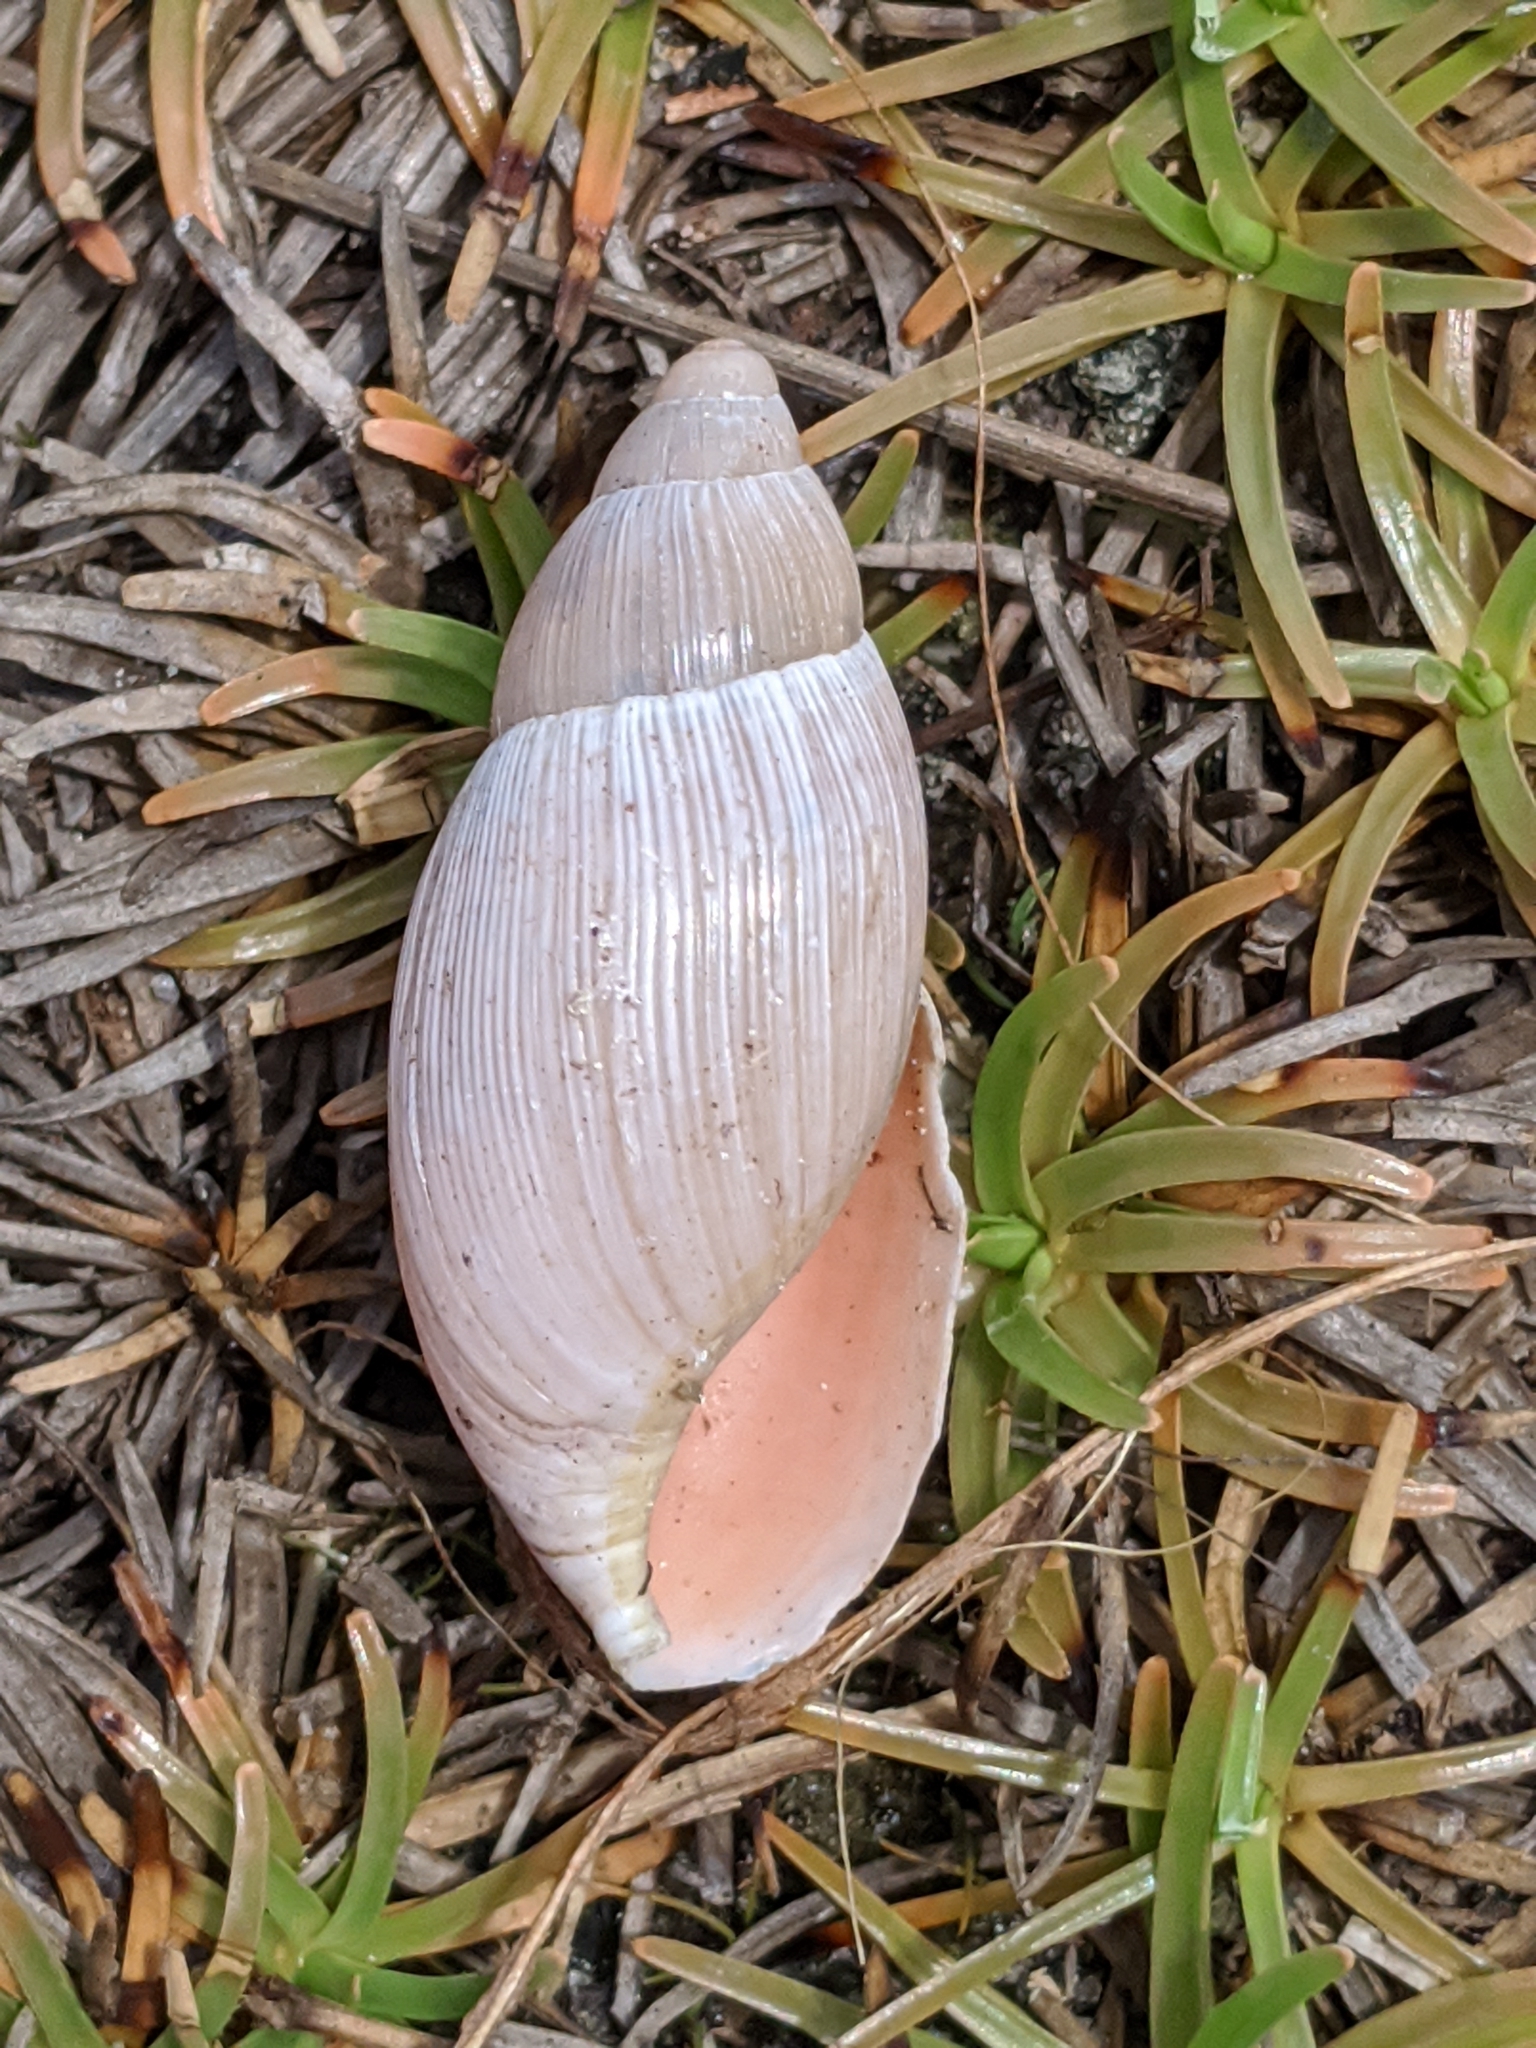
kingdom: Animalia
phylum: Mollusca
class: Gastropoda
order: Stylommatophora
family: Spiraxidae
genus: Euglandina
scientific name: Euglandina rosea
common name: Rosy wolfsnail
